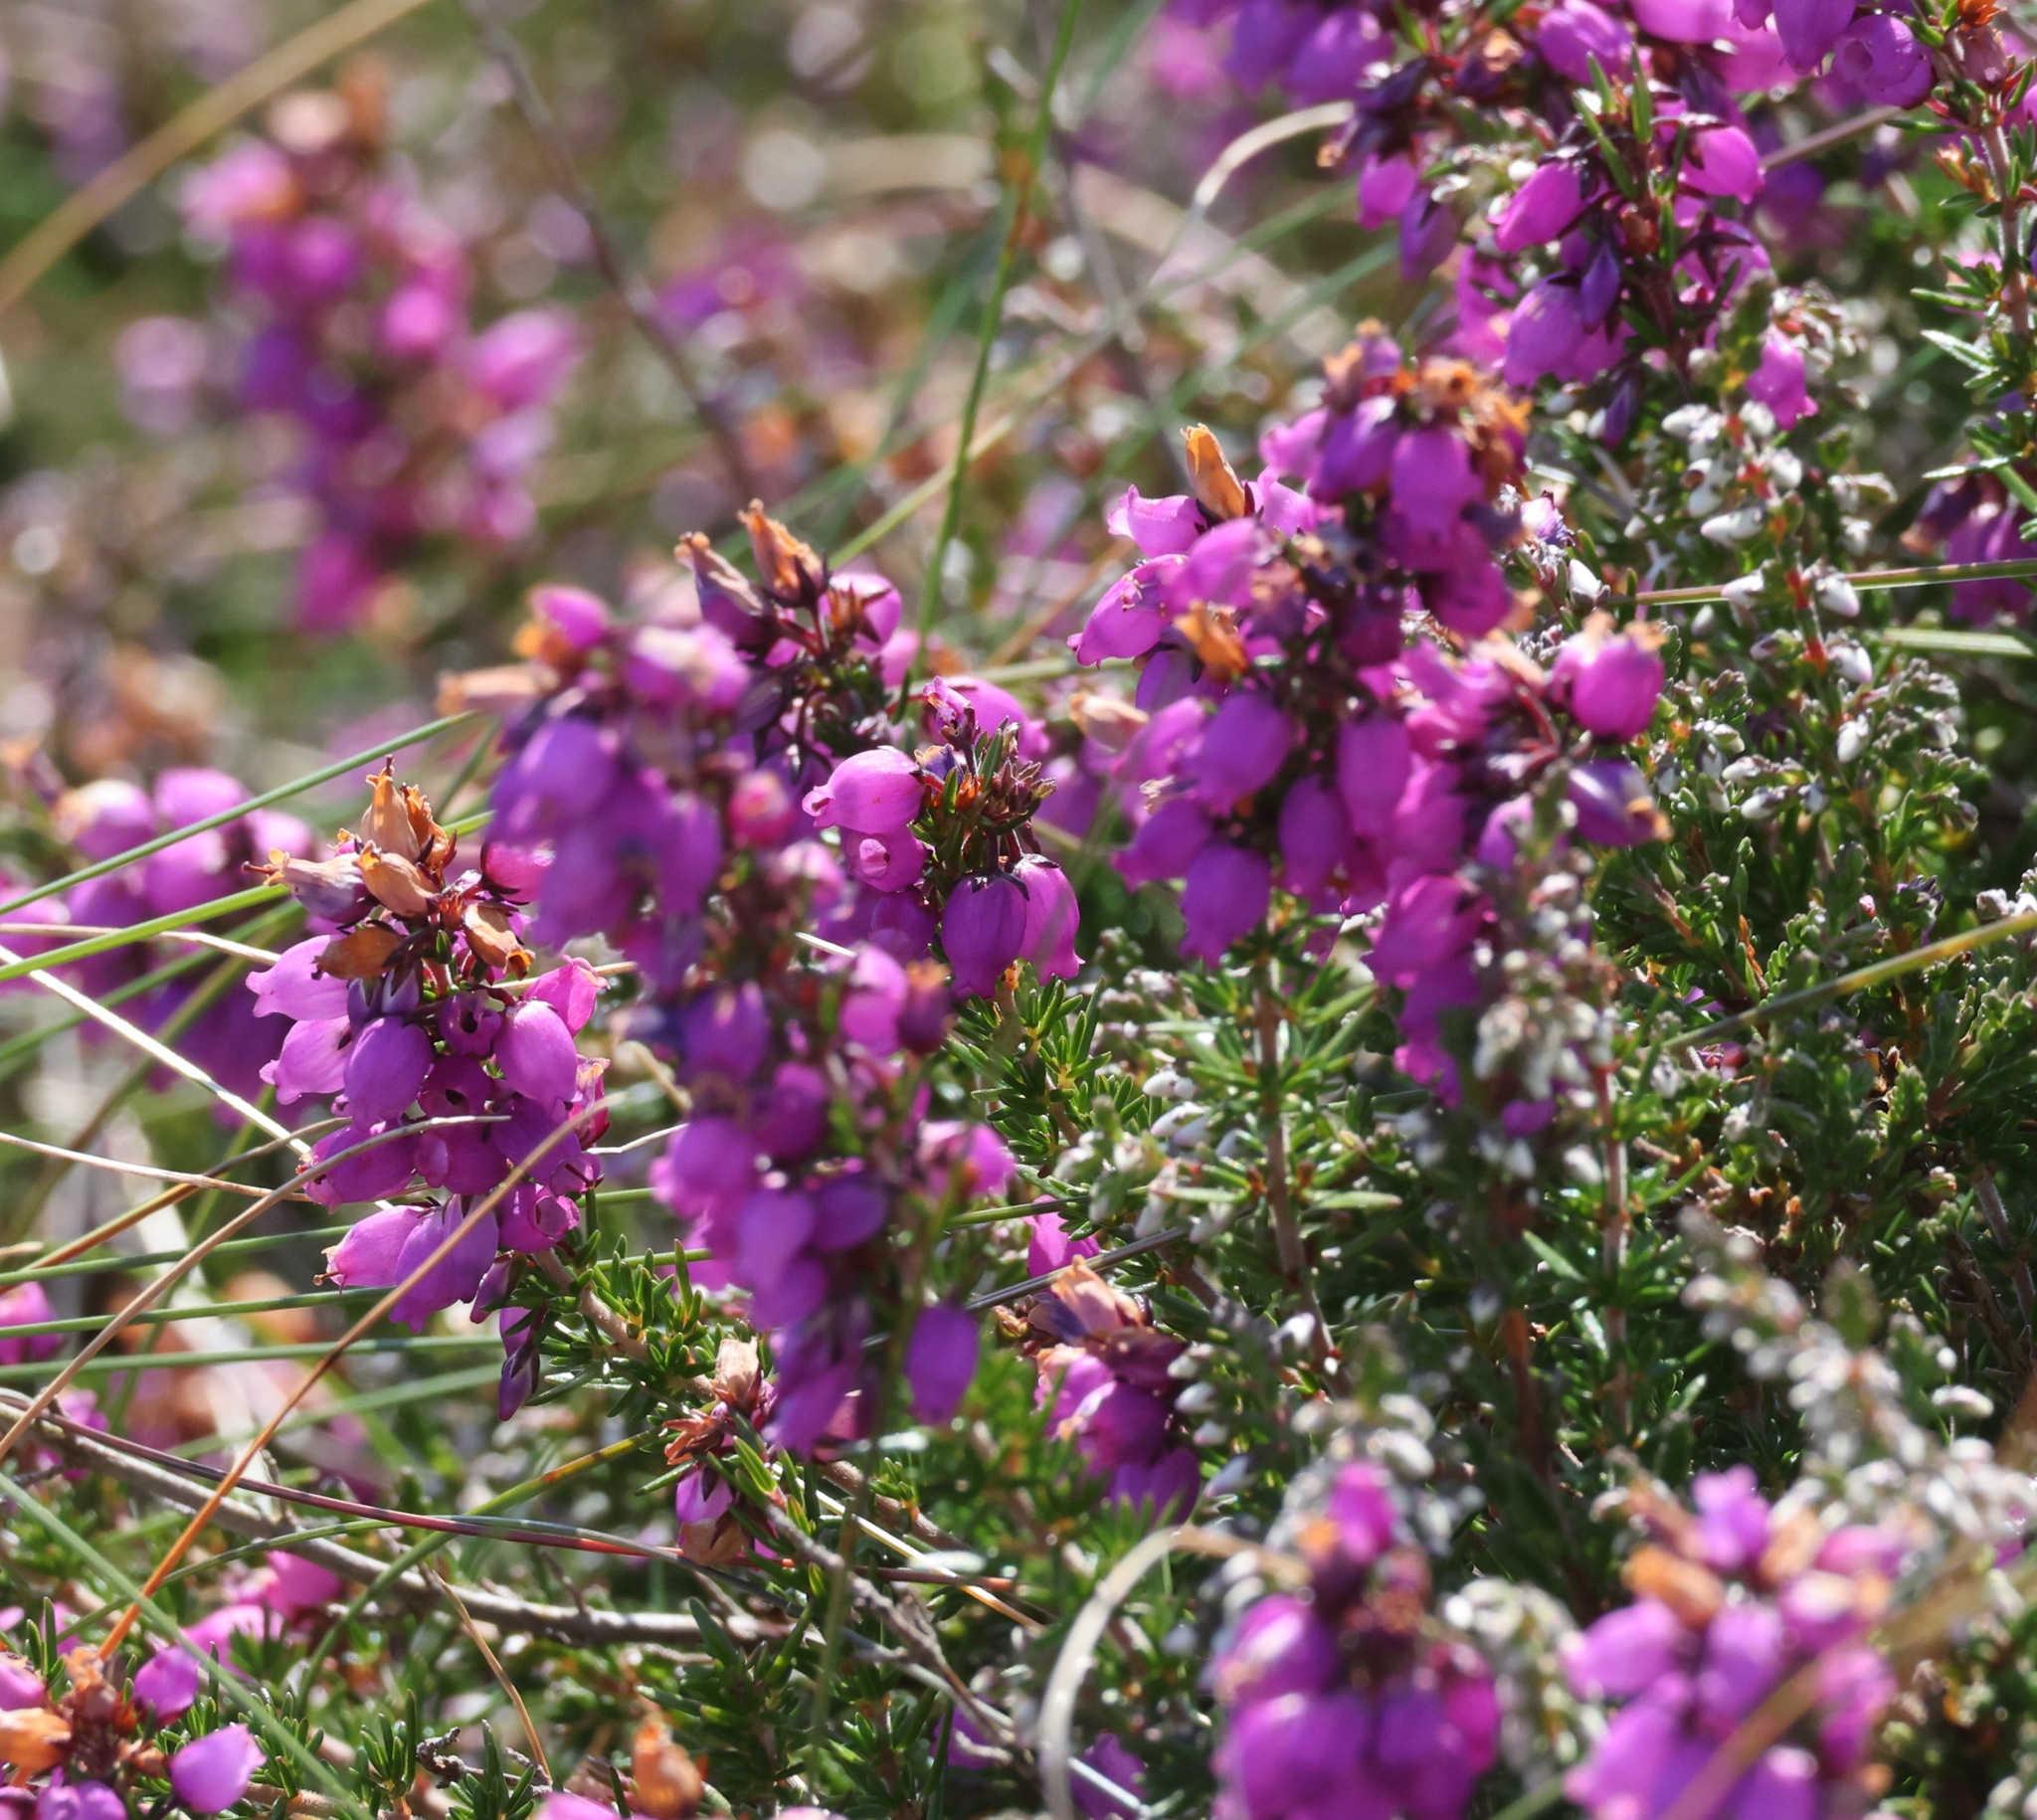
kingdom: Plantae
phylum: Tracheophyta
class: Magnoliopsida
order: Ericales
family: Ericaceae
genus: Erica
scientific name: Erica cinerea
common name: Bell heather
